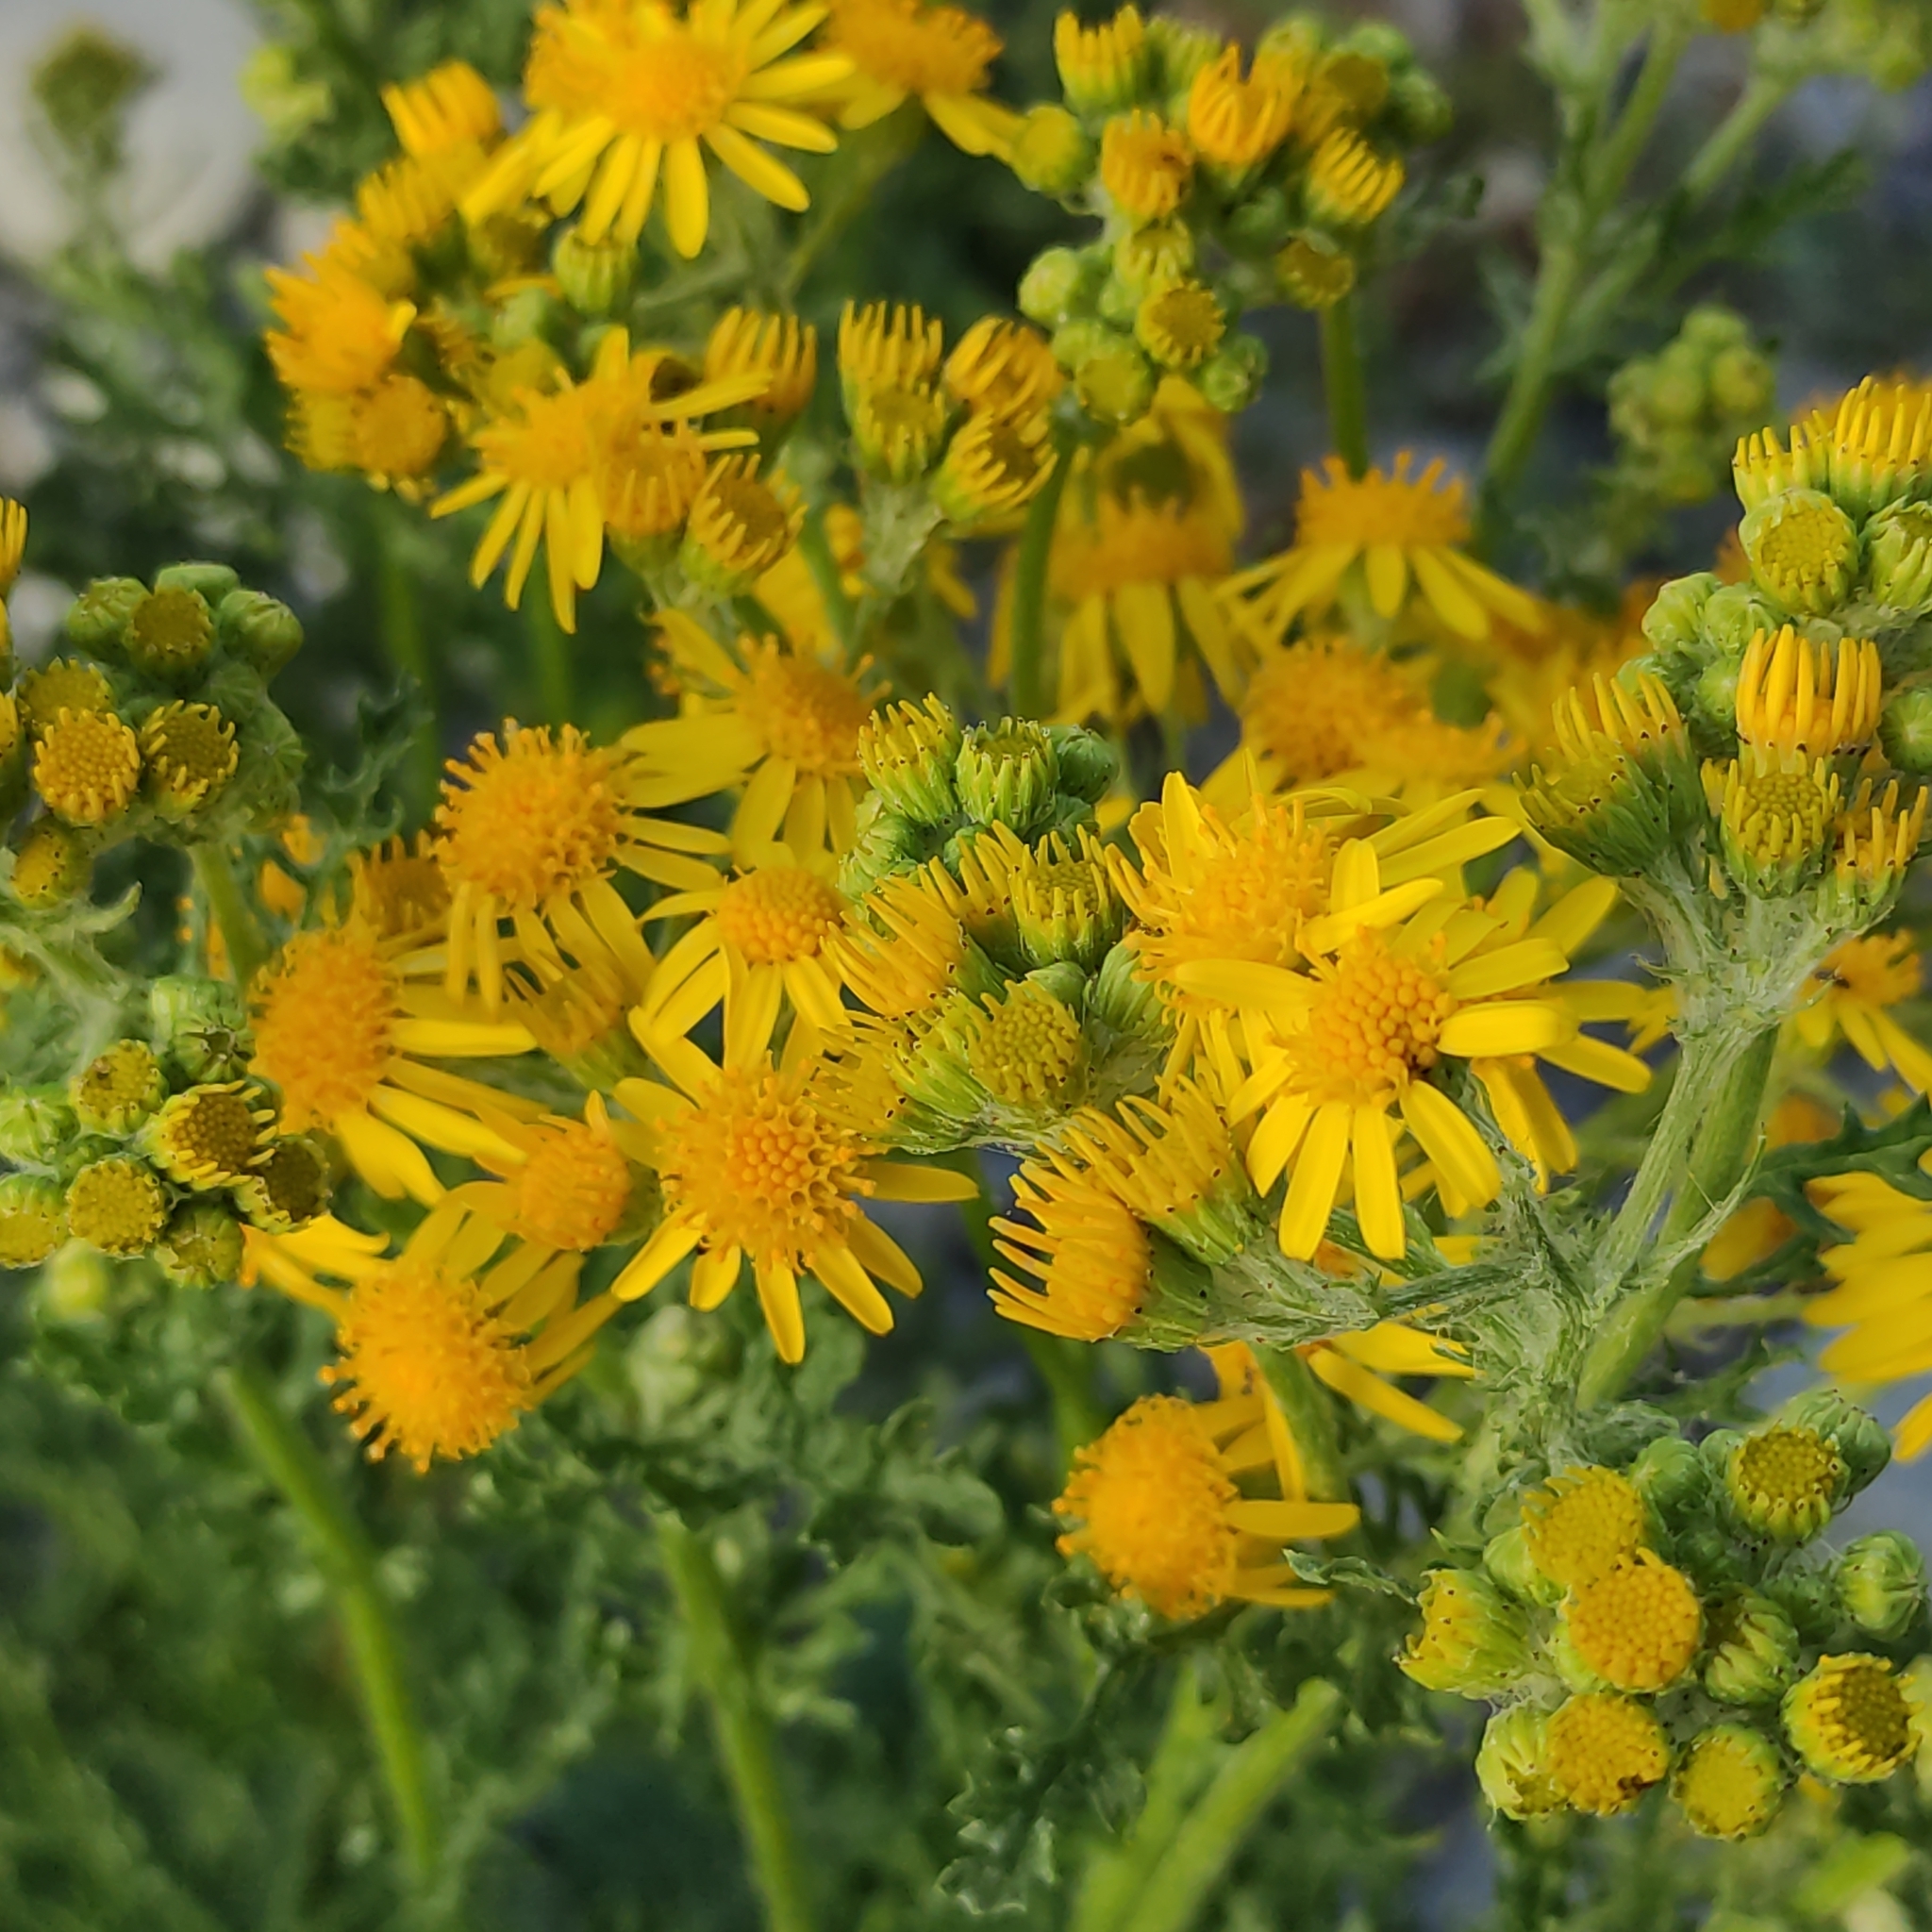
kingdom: Plantae
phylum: Tracheophyta
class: Magnoliopsida
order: Asterales
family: Asteraceae
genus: Jacobaea
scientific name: Jacobaea vulgaris
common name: Stinking willie
